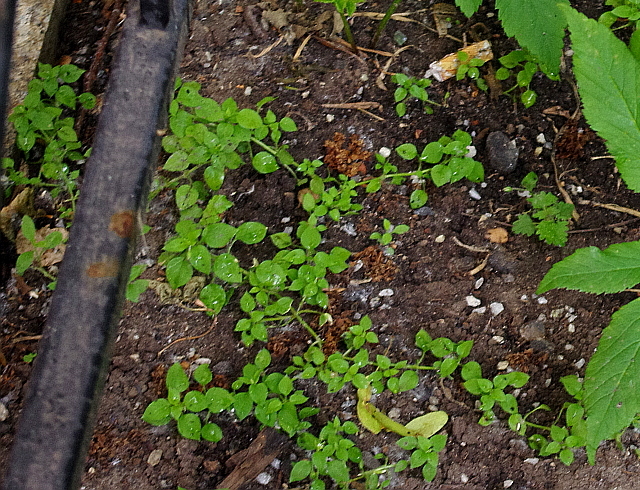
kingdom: Plantae
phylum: Tracheophyta
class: Magnoliopsida
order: Caryophyllales
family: Caryophyllaceae
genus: Stellaria
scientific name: Stellaria media
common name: Common chickweed
